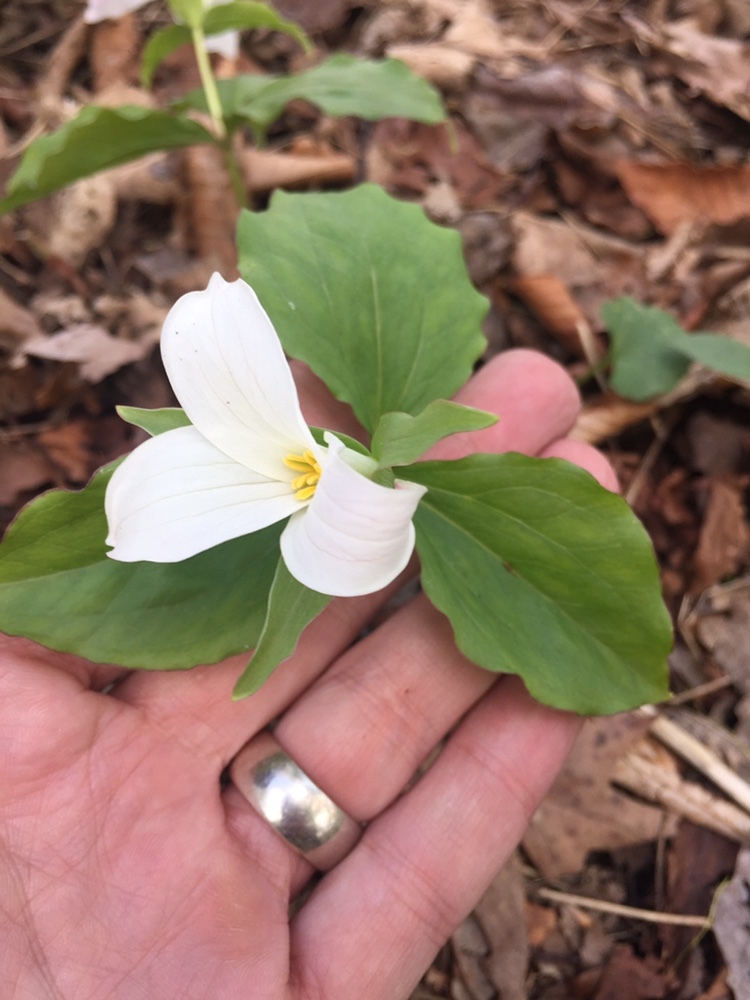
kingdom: Plantae
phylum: Tracheophyta
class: Liliopsida
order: Liliales
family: Melanthiaceae
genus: Trillium
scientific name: Trillium grandiflorum
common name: Great white trillium
